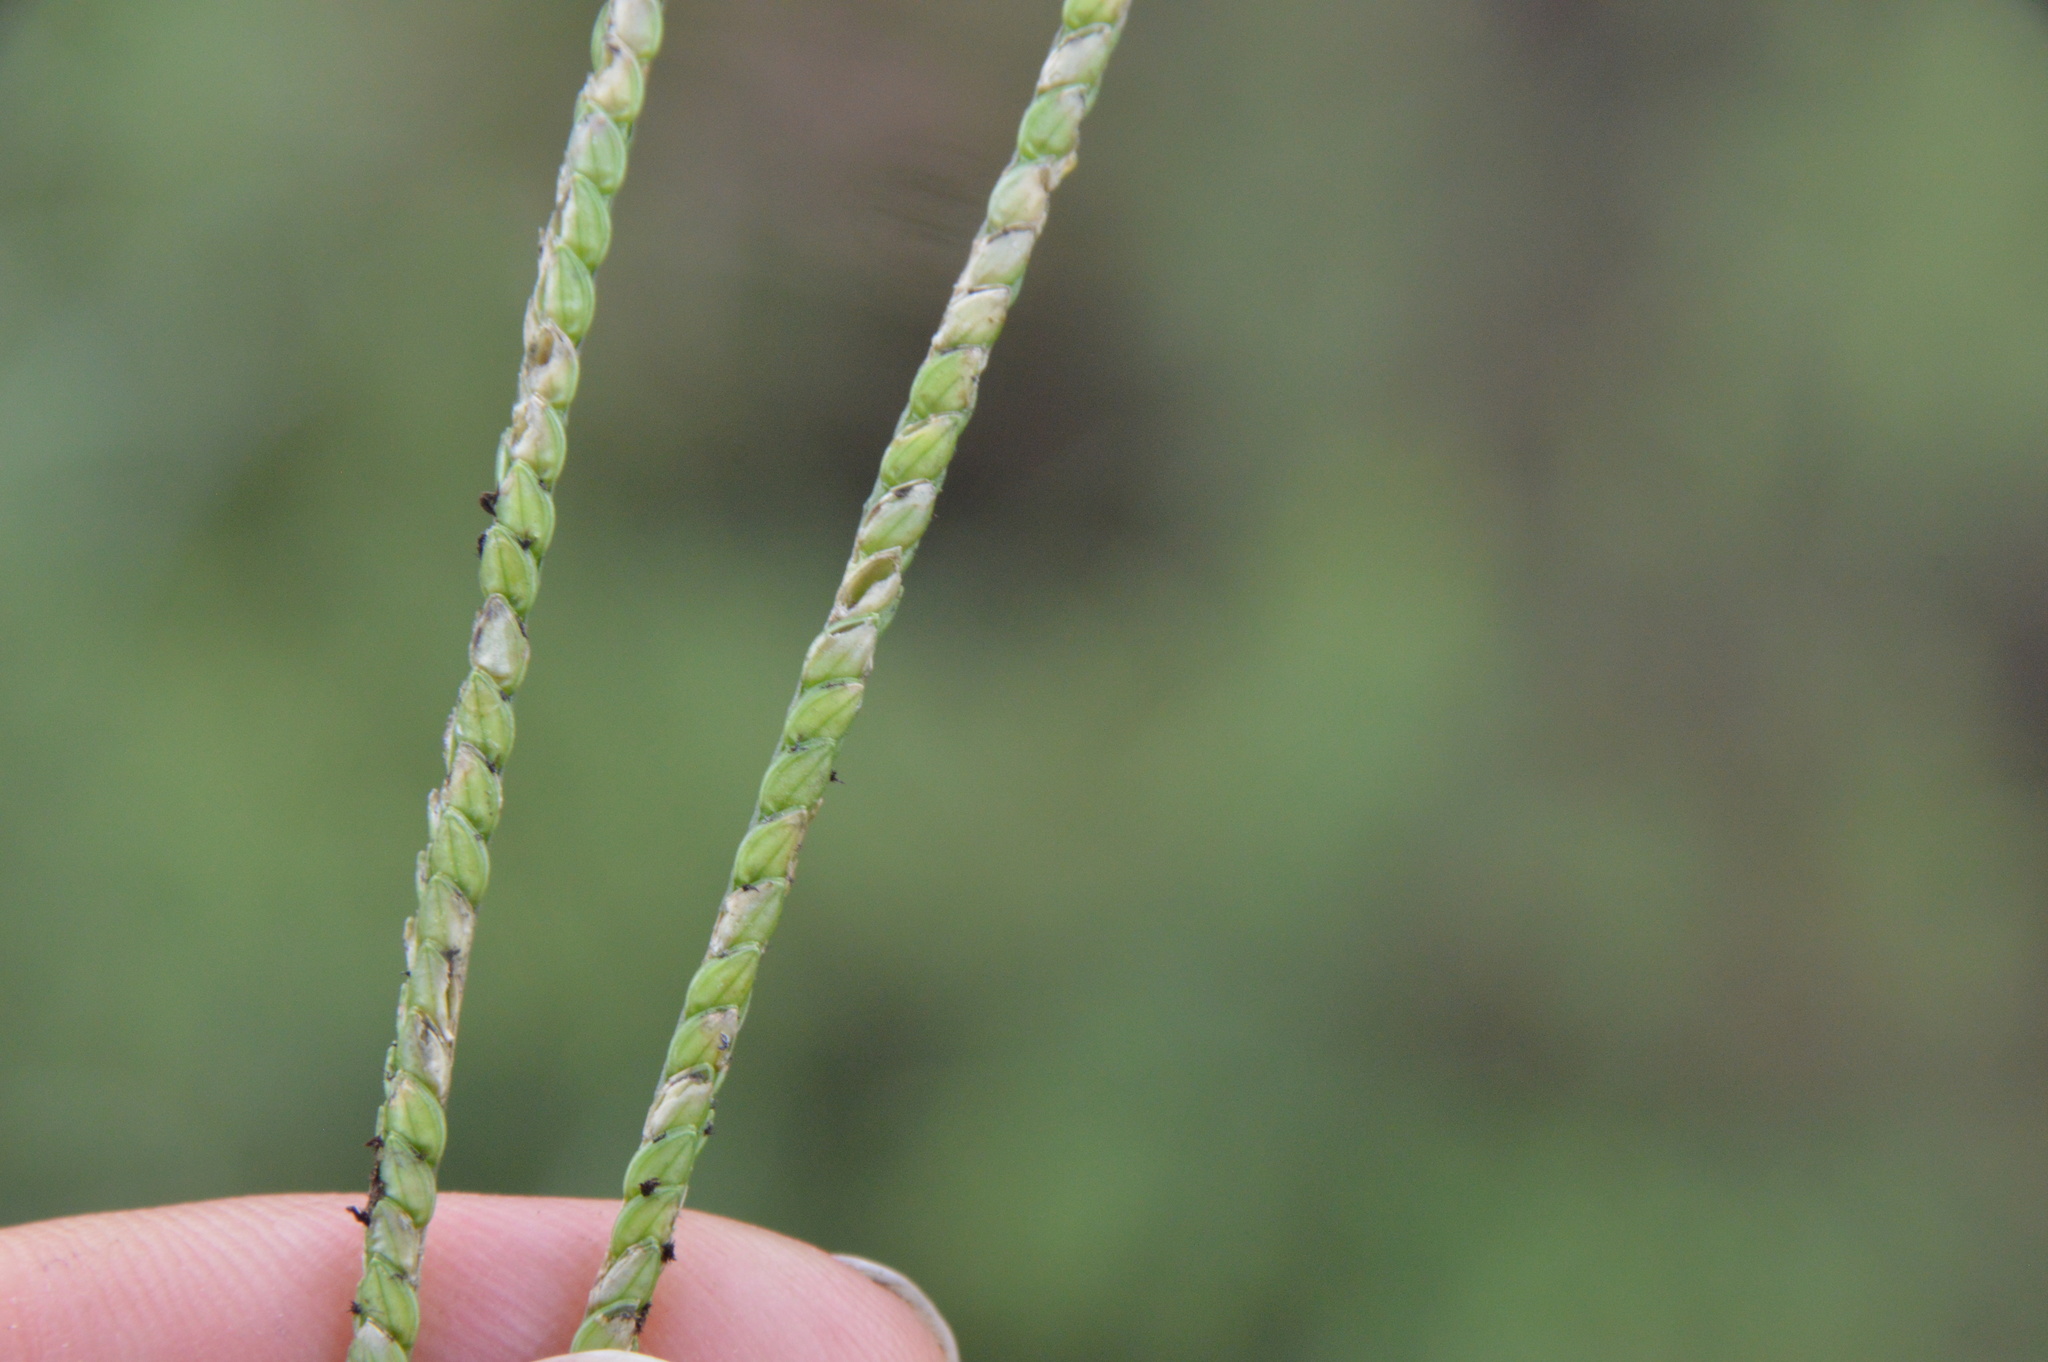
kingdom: Plantae
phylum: Tracheophyta
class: Liliopsida
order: Poales
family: Poaceae
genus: Paspalum
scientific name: Paspalum notatum
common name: Bahiagrass
